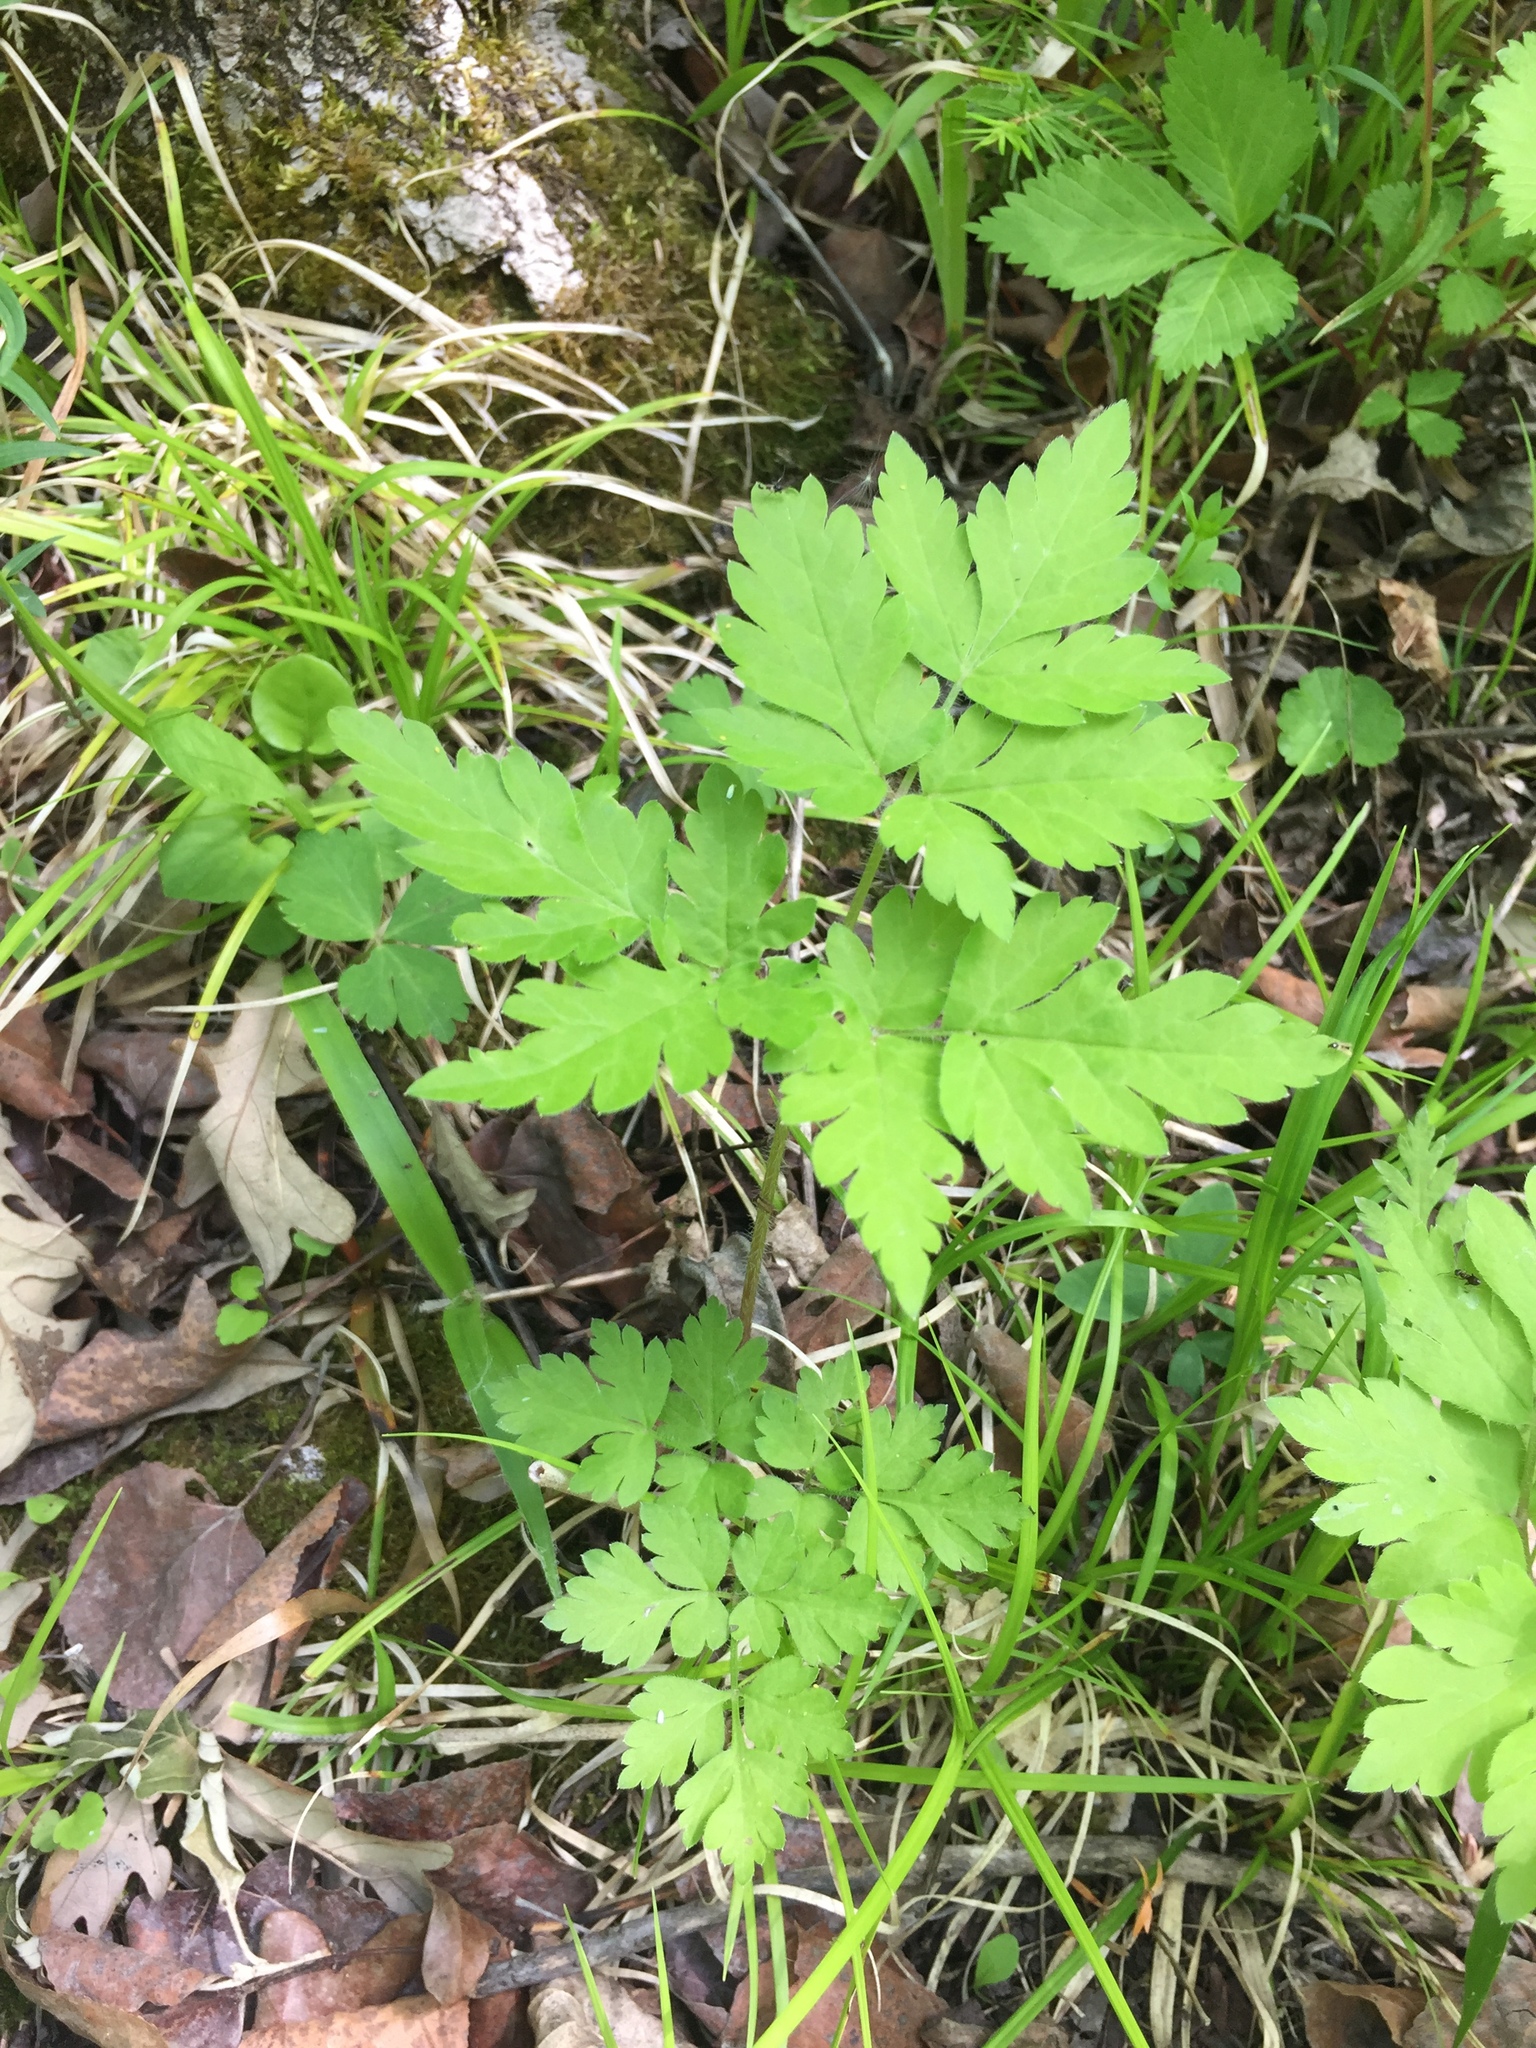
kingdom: Plantae
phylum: Tracheophyta
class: Magnoliopsida
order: Apiales
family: Apiaceae
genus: Osmorhiza
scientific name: Osmorhiza claytonii
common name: Hairy sweet cicely
